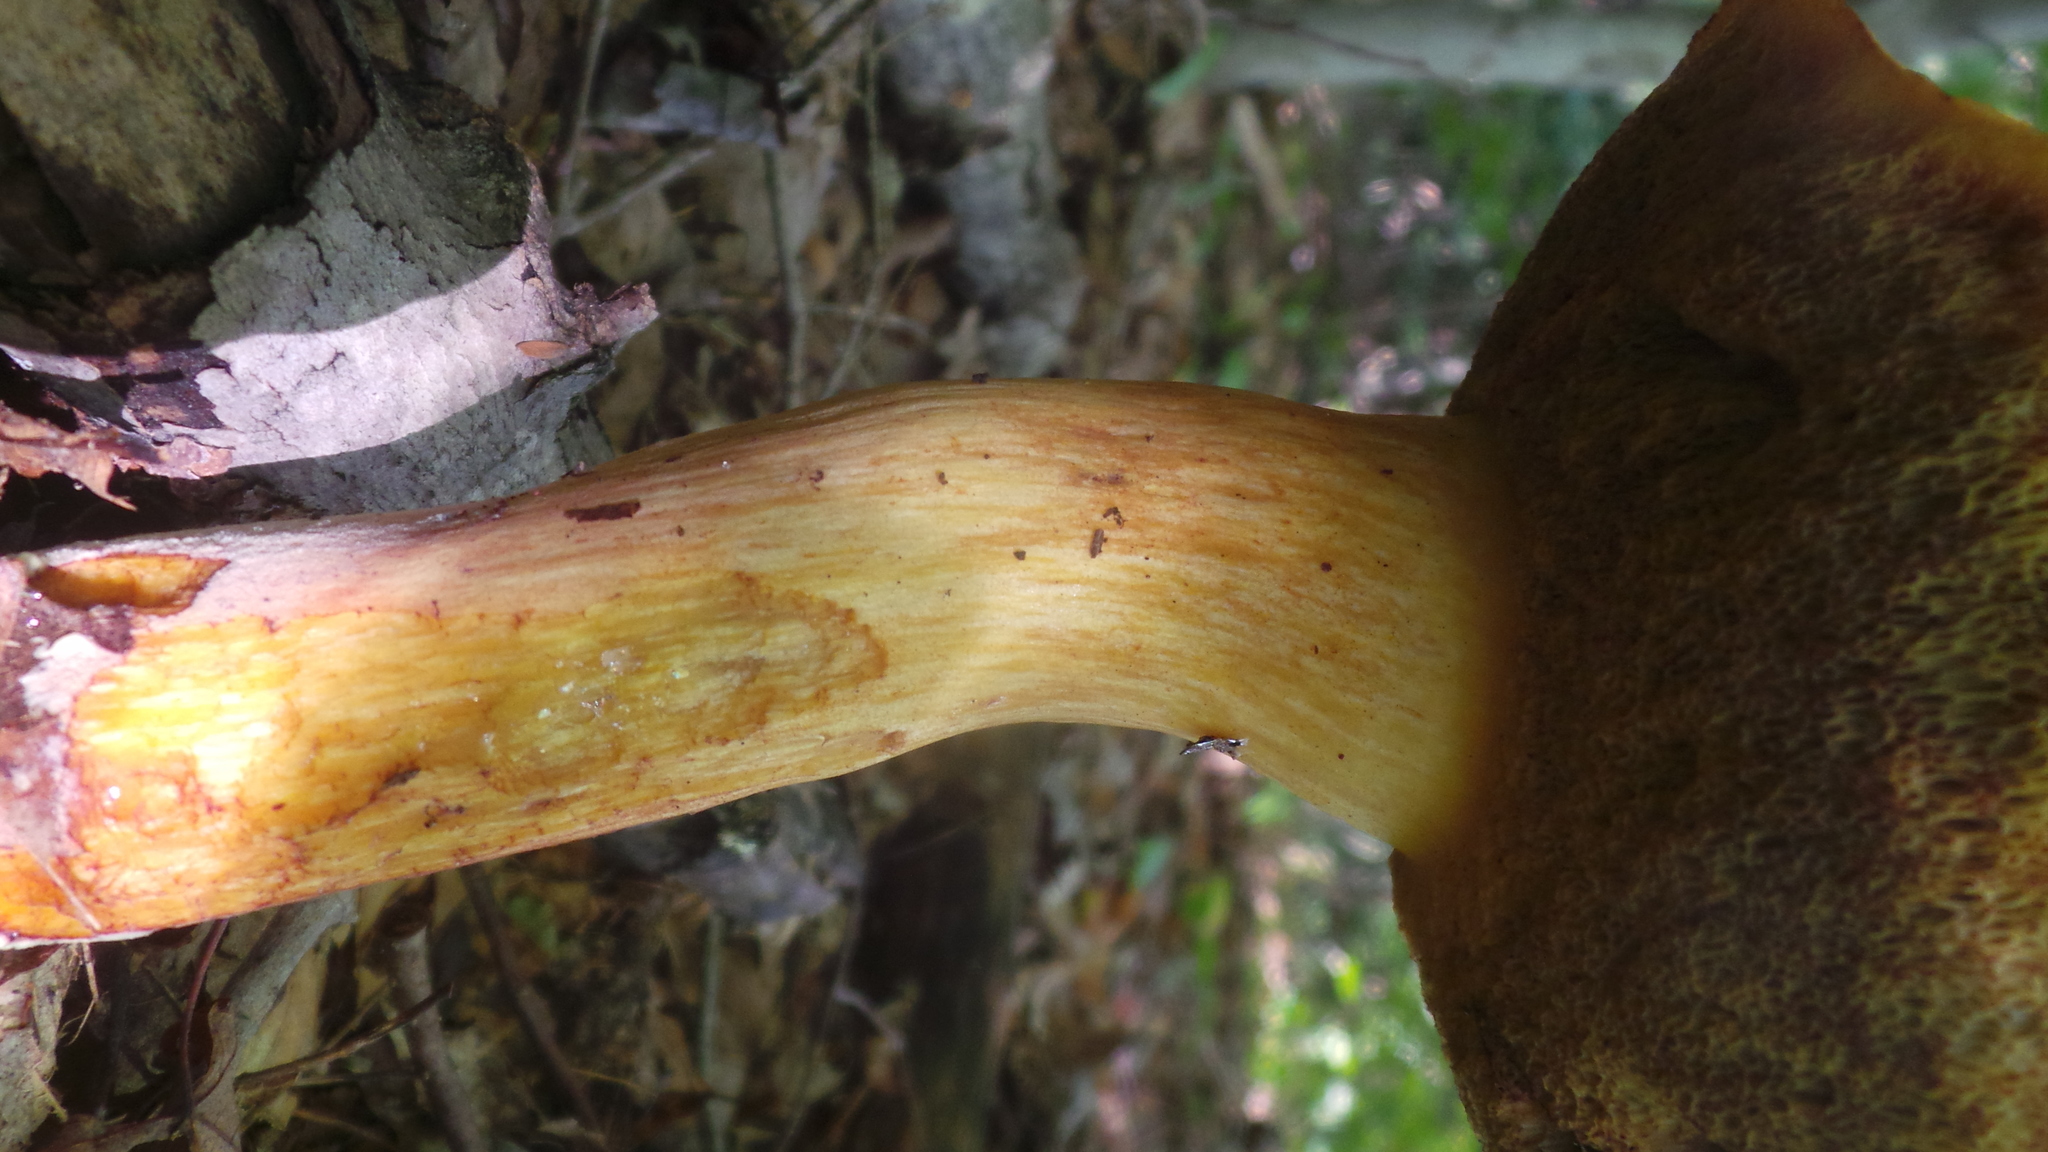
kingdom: Fungi
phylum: Basidiomycota
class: Agaricomycetes
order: Boletales
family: Boletaceae
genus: Boletus
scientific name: Boletus
